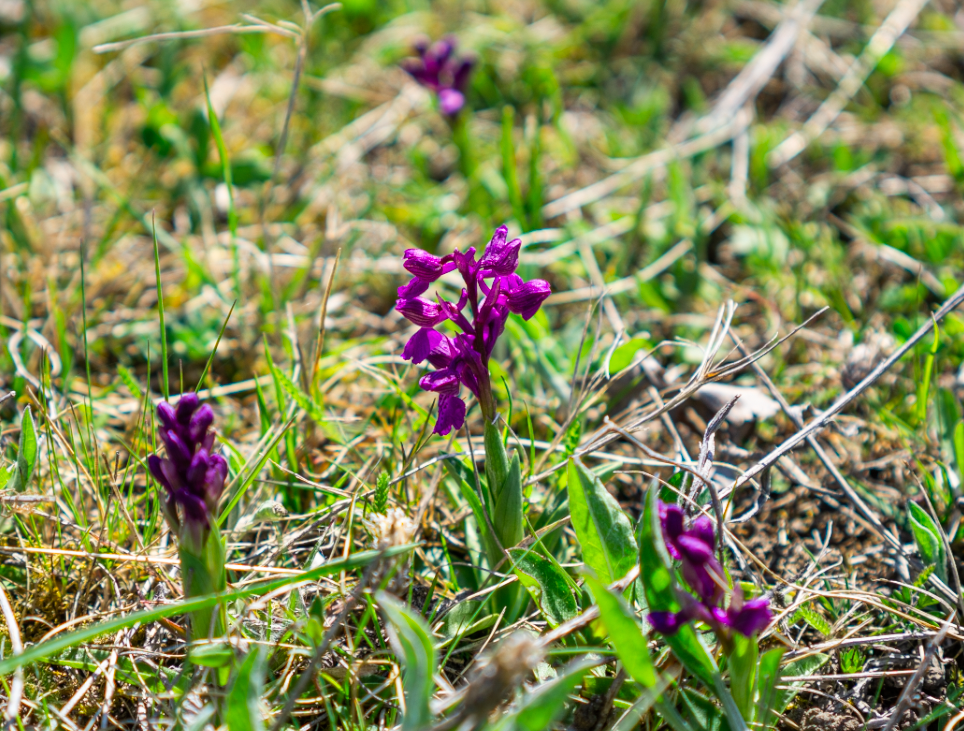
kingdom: Plantae
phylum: Tracheophyta
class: Liliopsida
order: Asparagales
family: Orchidaceae
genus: Anacamptis
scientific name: Anacamptis morio
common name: Green-winged orchid
